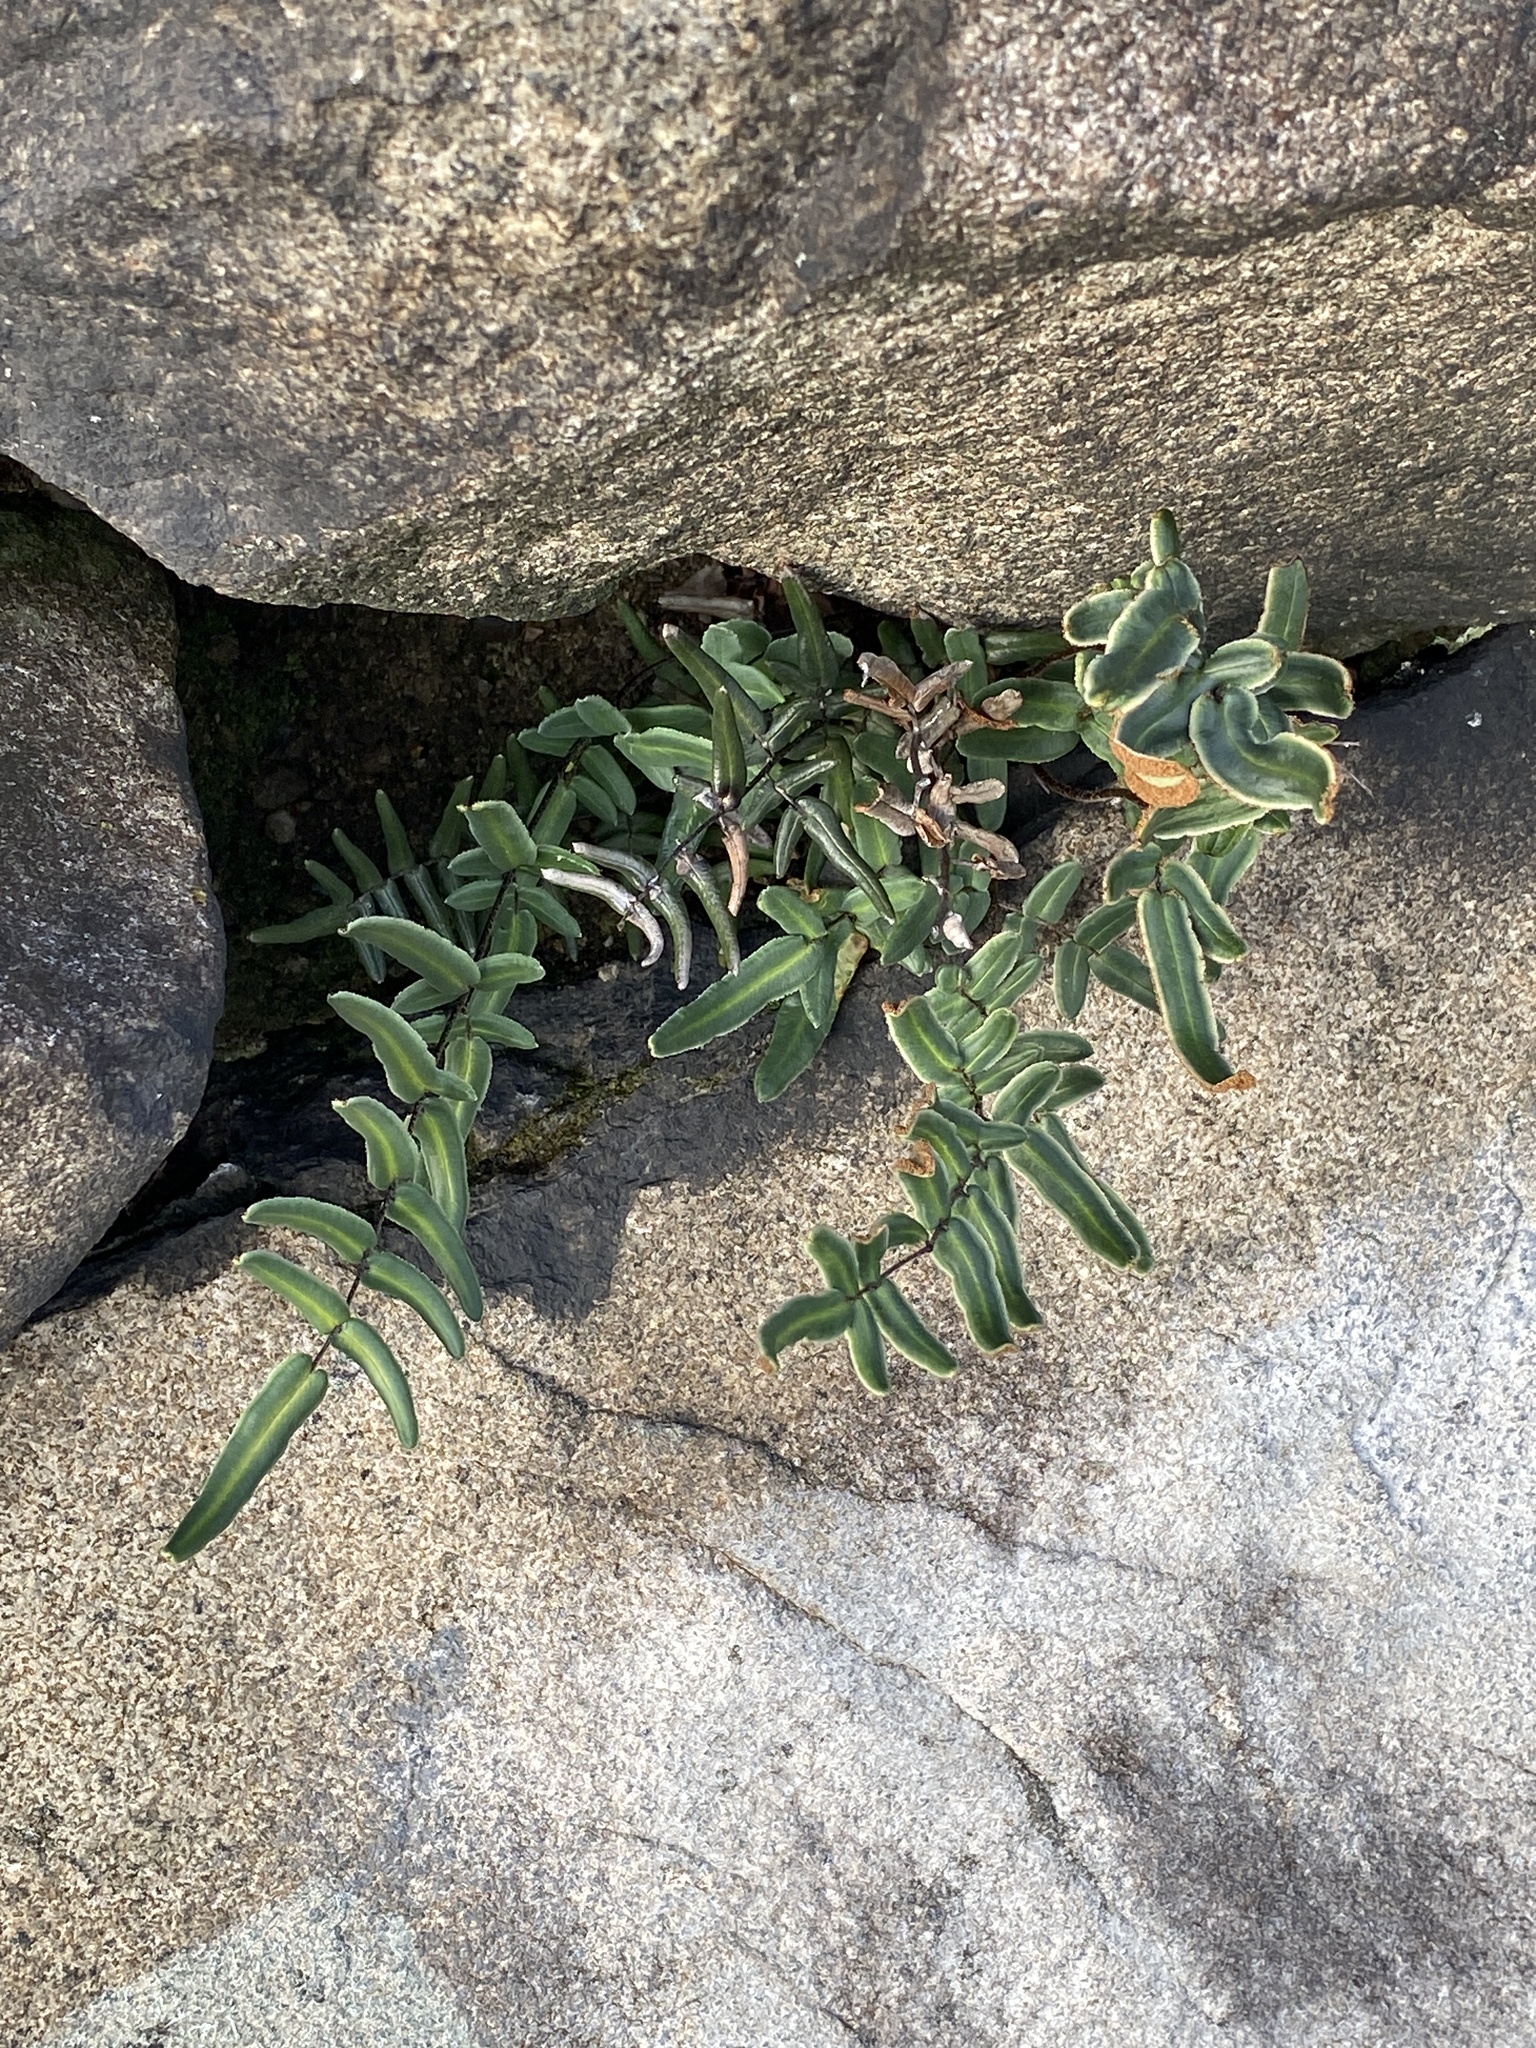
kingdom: Plantae
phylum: Tracheophyta
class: Polypodiopsida
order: Polypodiales
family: Pteridaceae
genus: Pellaea
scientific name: Pellaea atropurpurea
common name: Hairy cliffbrake
